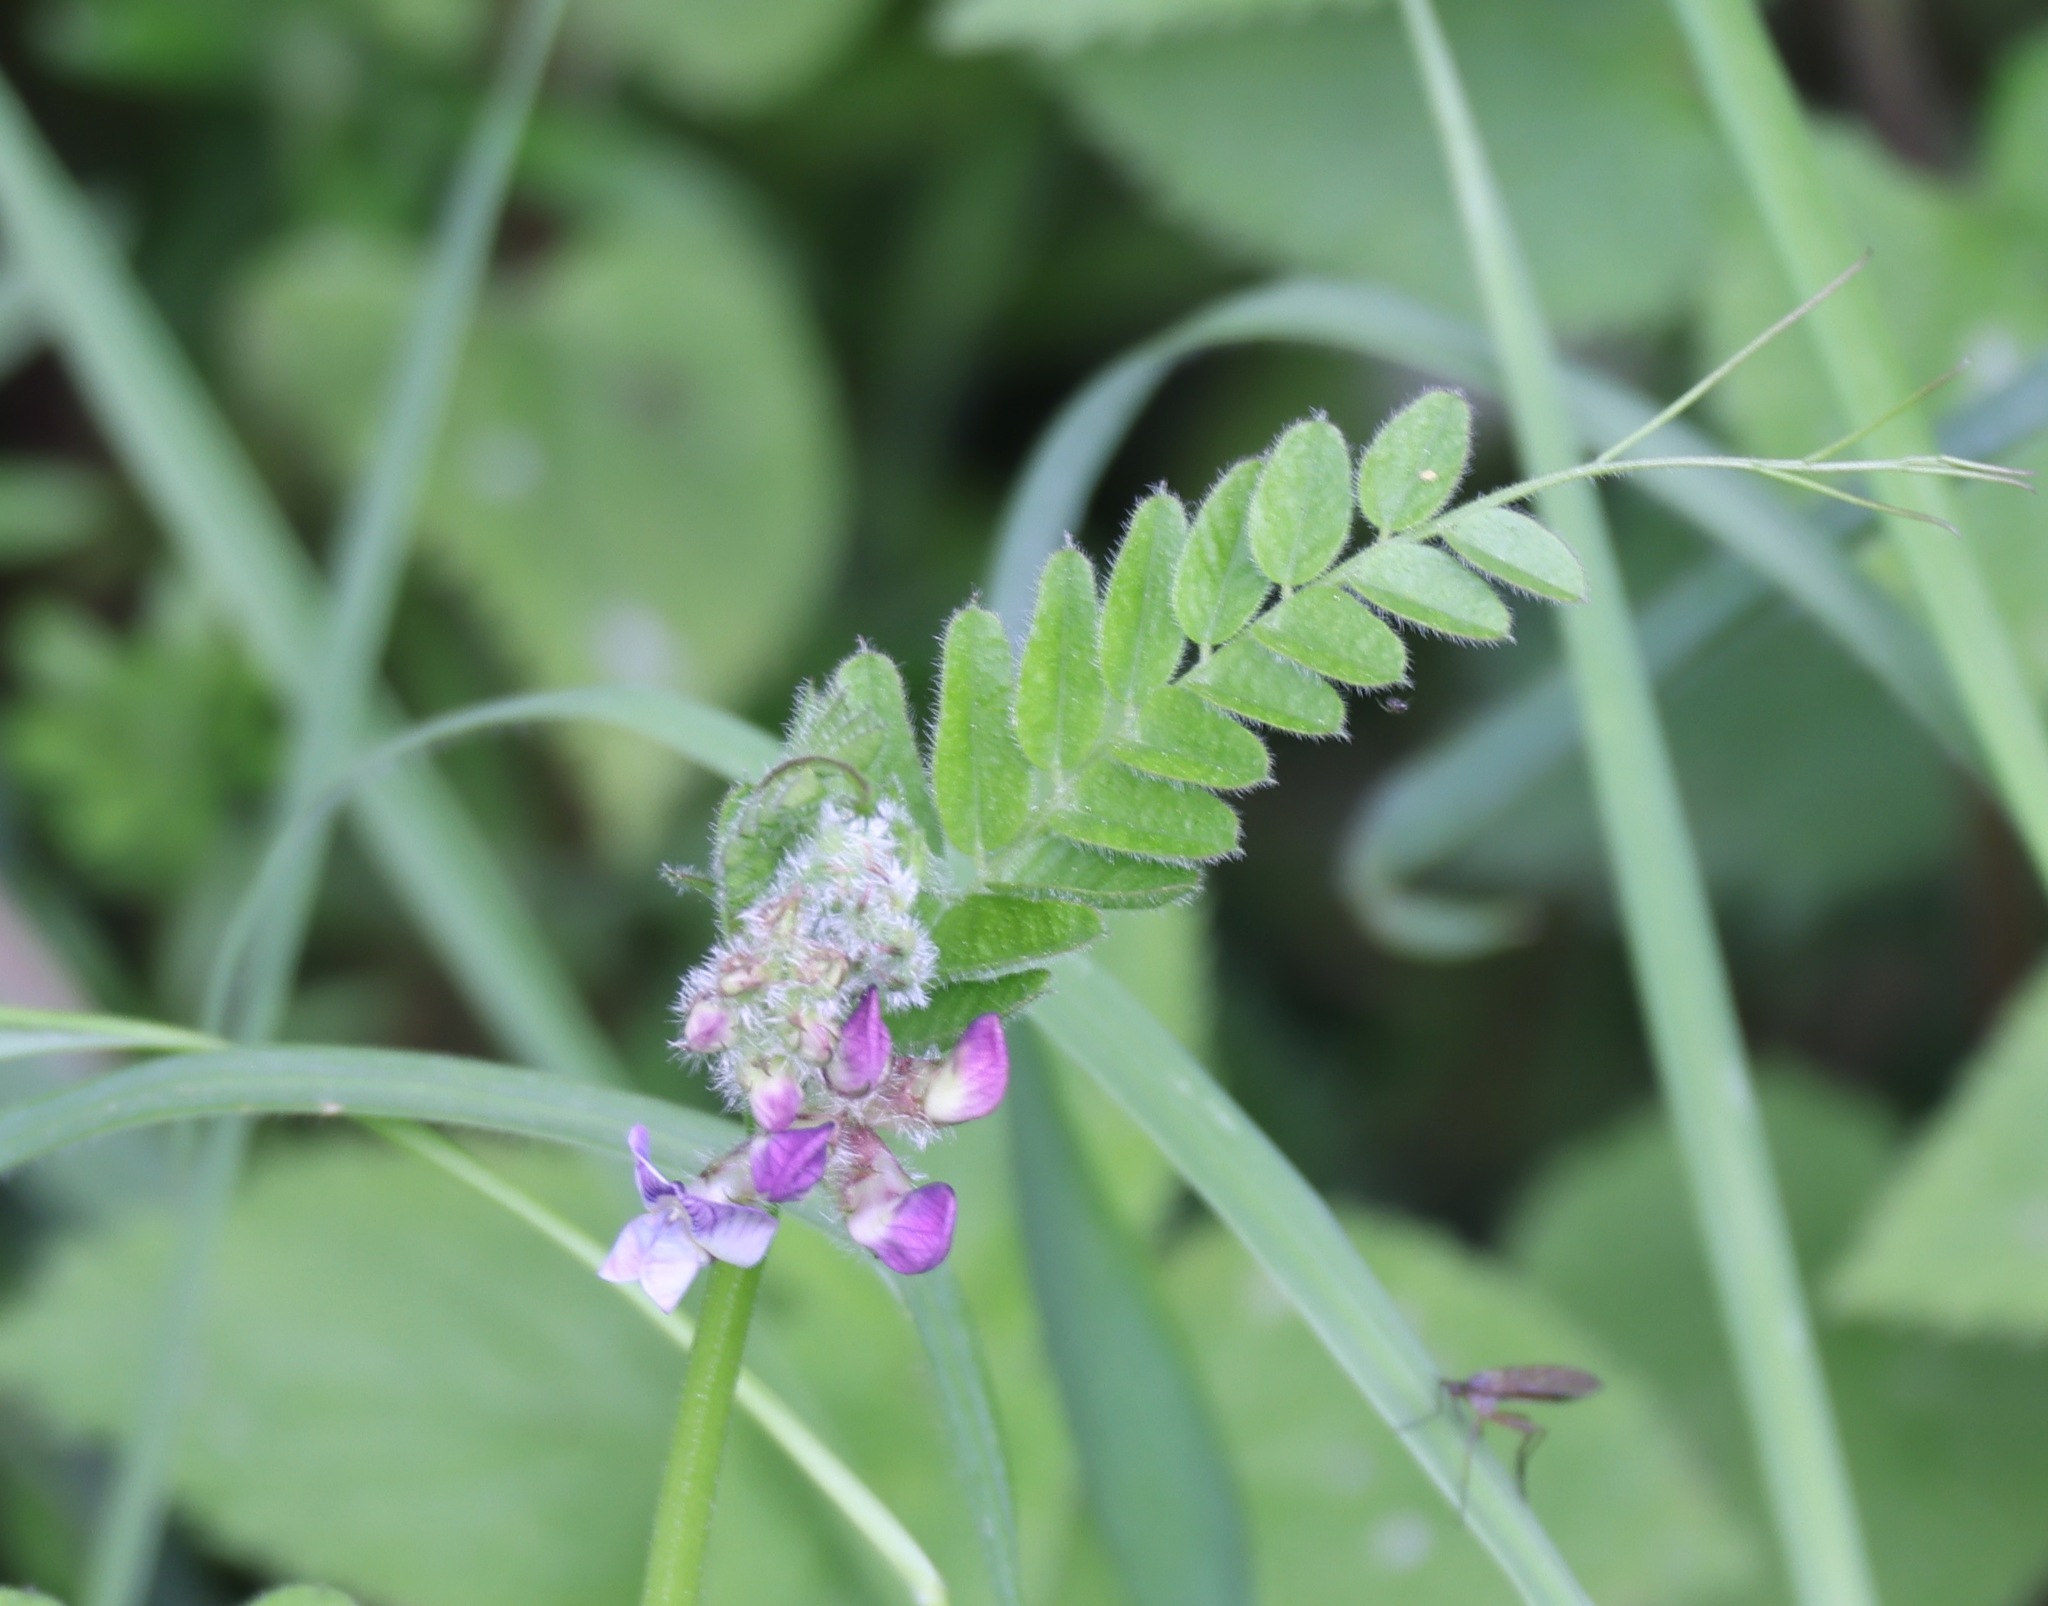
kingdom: Plantae
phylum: Tracheophyta
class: Magnoliopsida
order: Fabales
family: Fabaceae
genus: Vicia
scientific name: Vicia sepium
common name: Bush vetch
